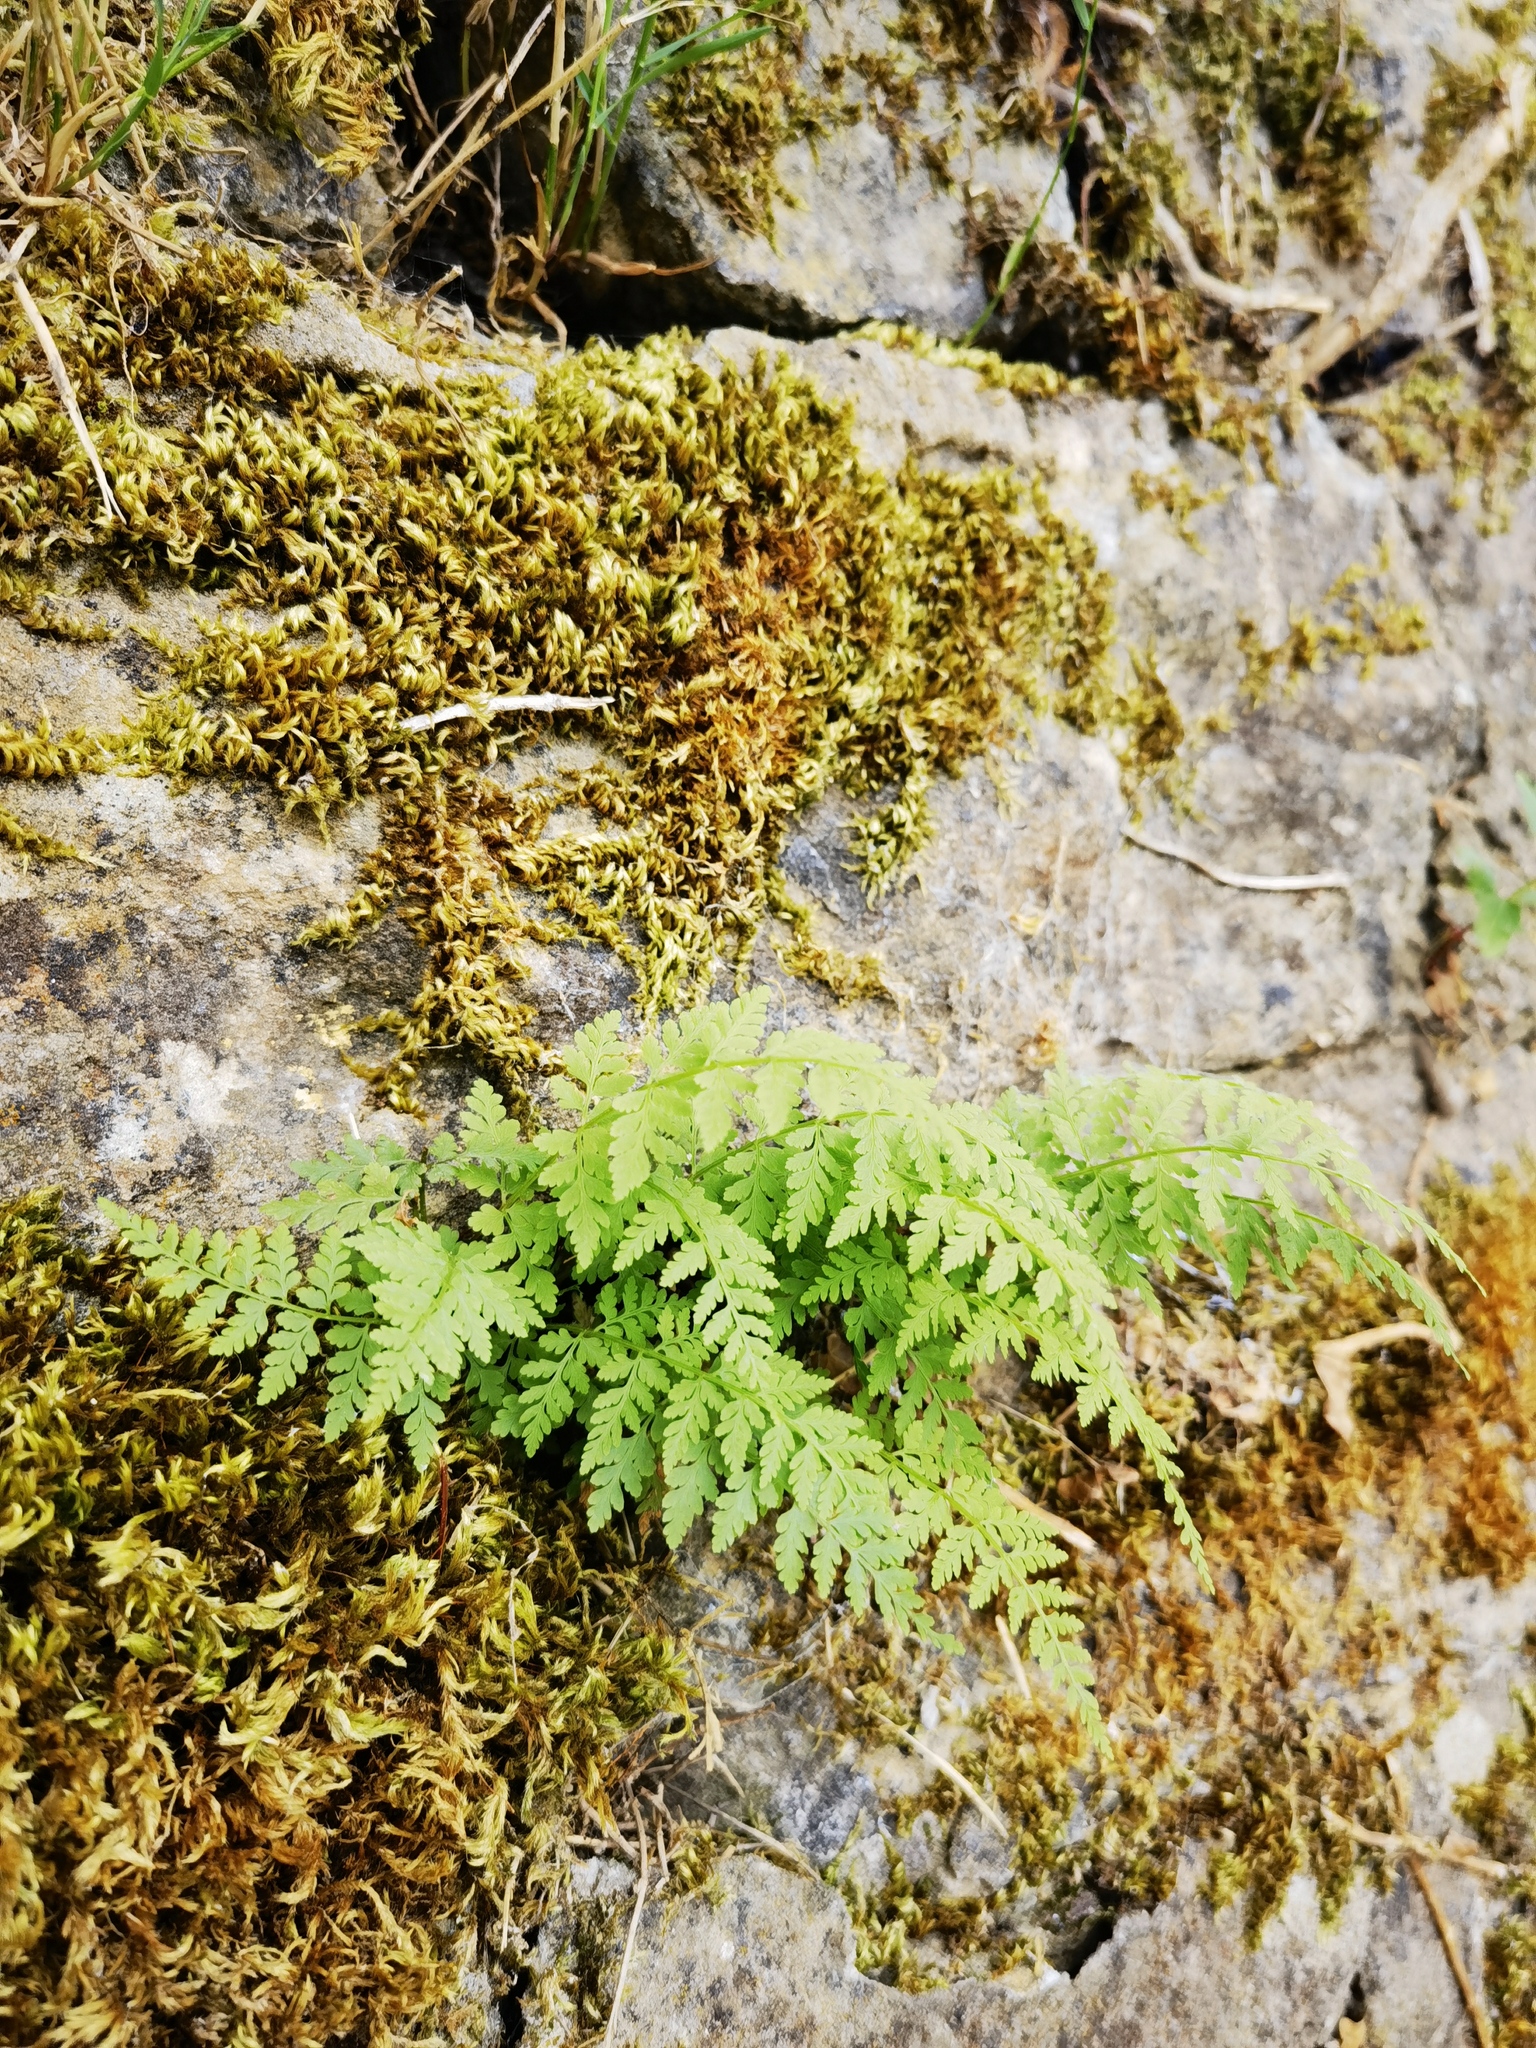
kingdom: Plantae
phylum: Tracheophyta
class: Polypodiopsida
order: Polypodiales
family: Cystopteridaceae
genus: Cystopteris
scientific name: Cystopteris fragilis
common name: Brittle bladder fern
